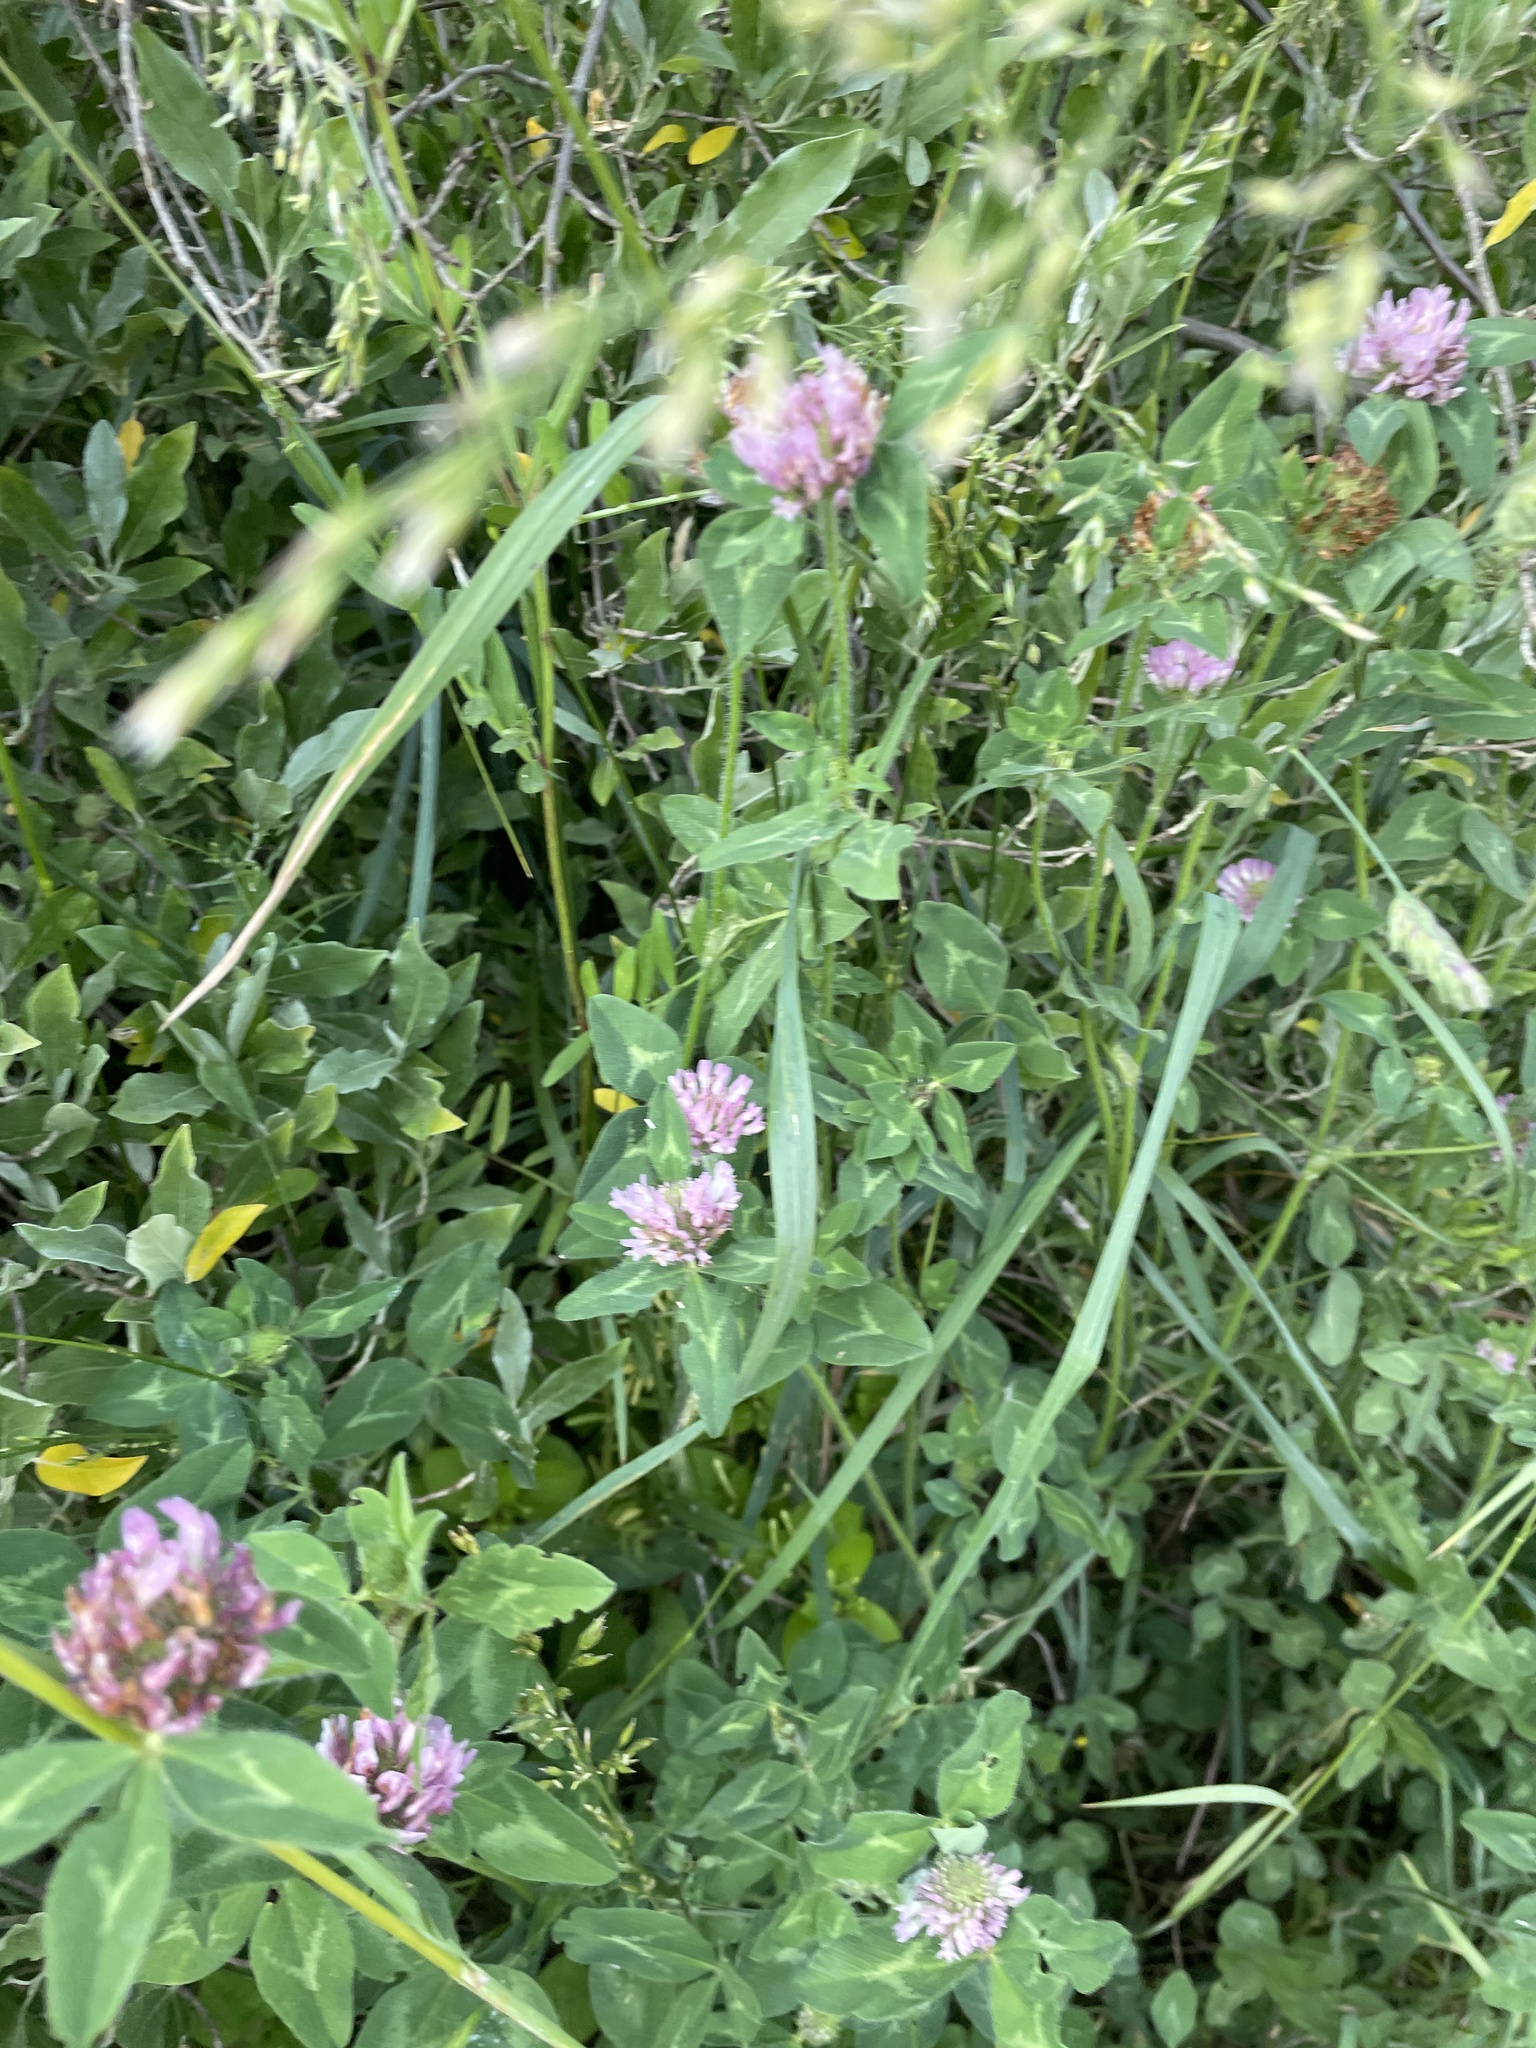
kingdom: Plantae
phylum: Tracheophyta
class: Magnoliopsida
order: Fabales
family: Fabaceae
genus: Trifolium
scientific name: Trifolium pratense
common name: Red clover
